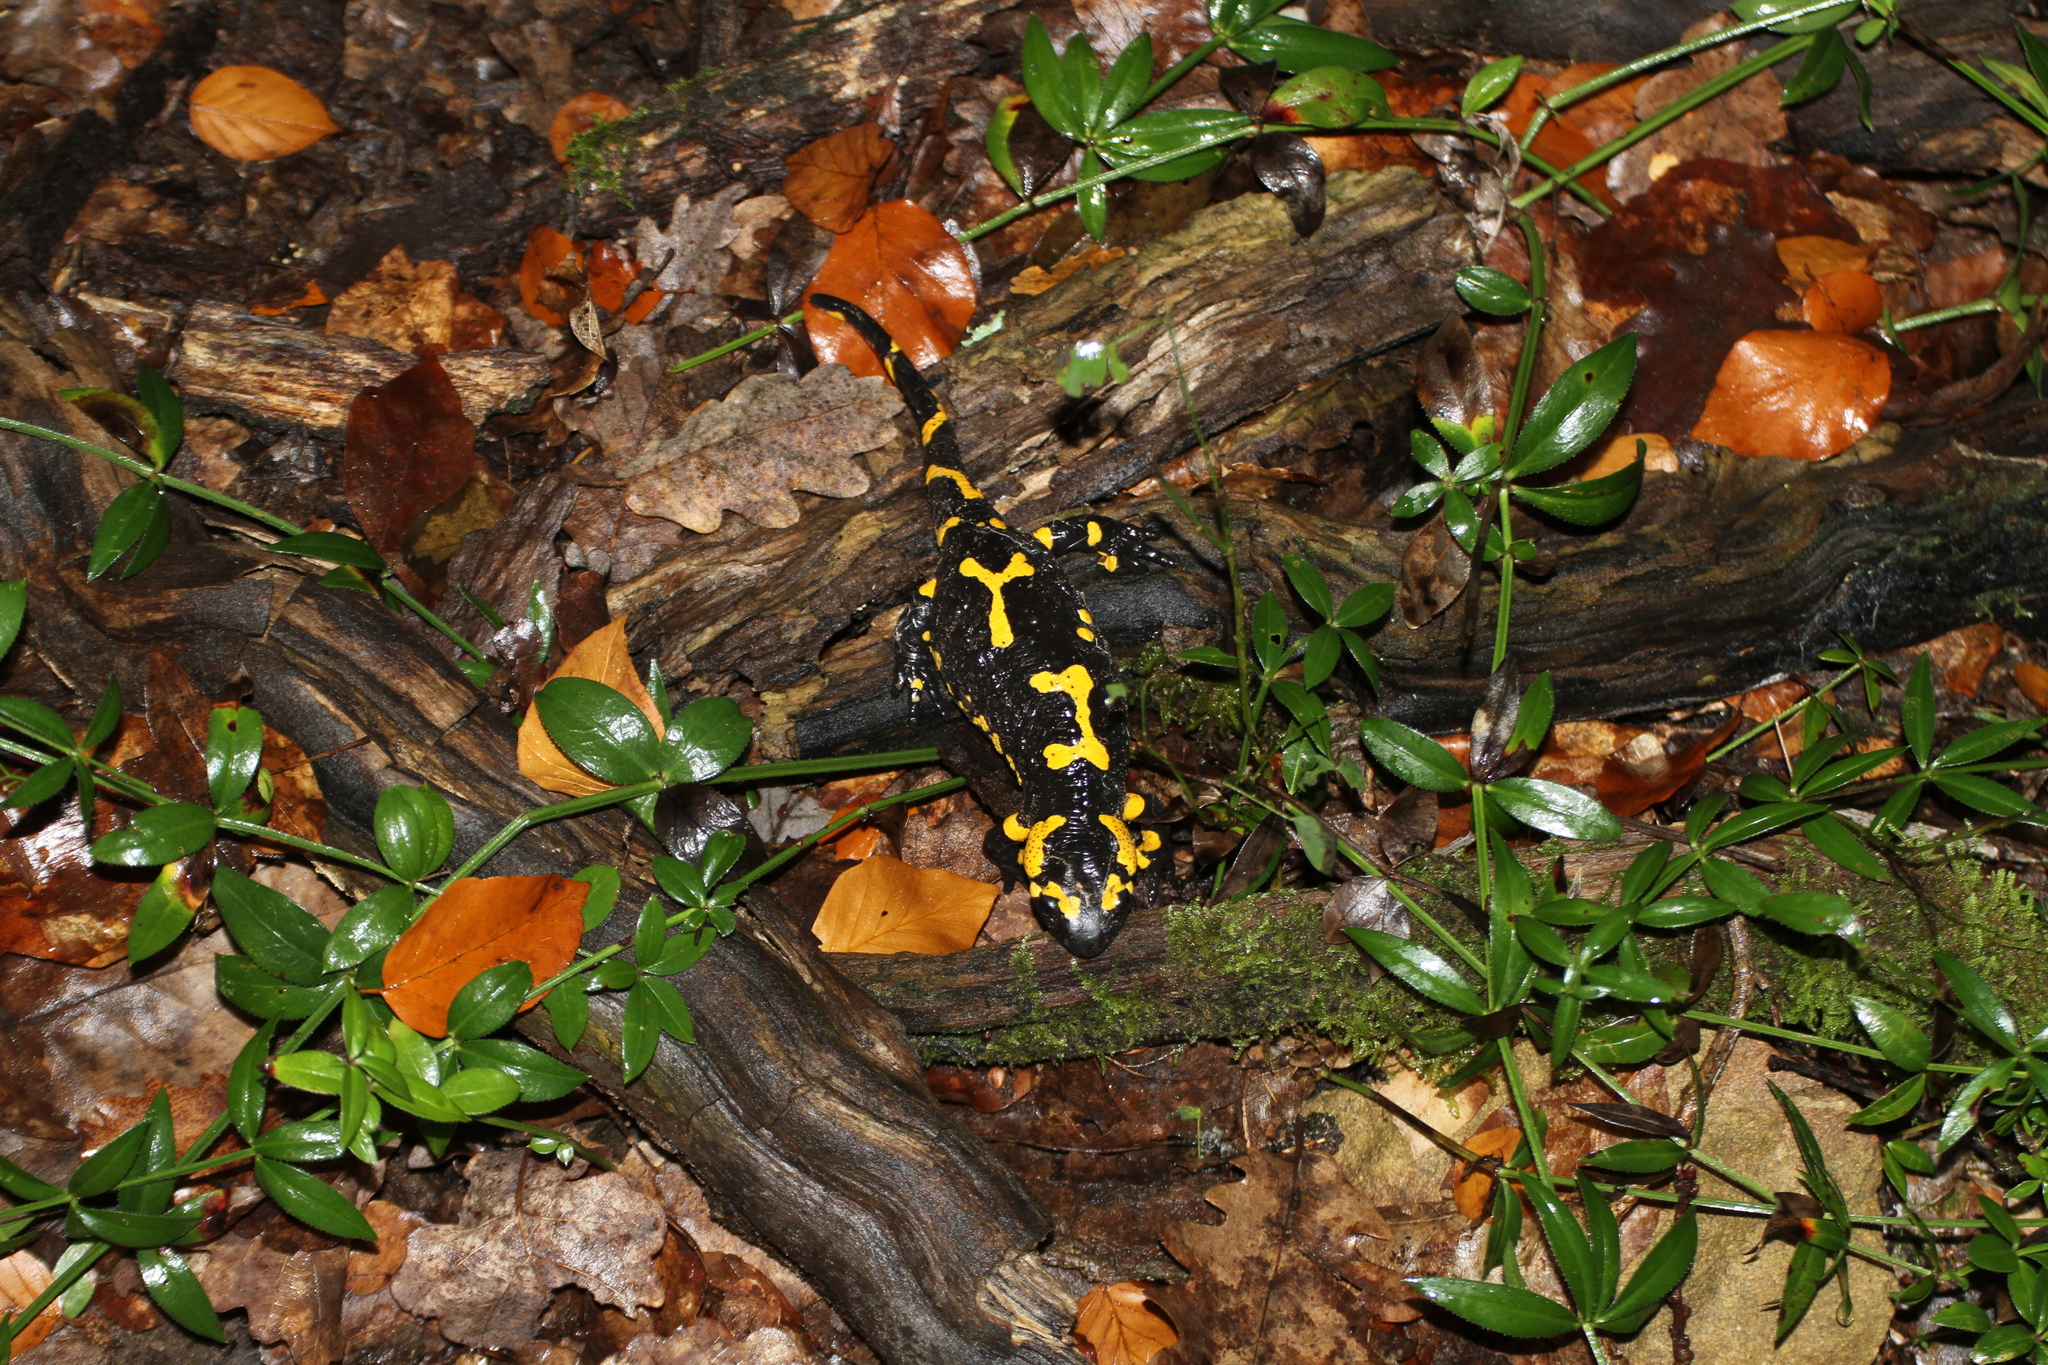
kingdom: Animalia
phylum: Chordata
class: Amphibia
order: Caudata
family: Salamandridae
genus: Salamandra
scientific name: Salamandra salamandra
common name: Fire salamander
